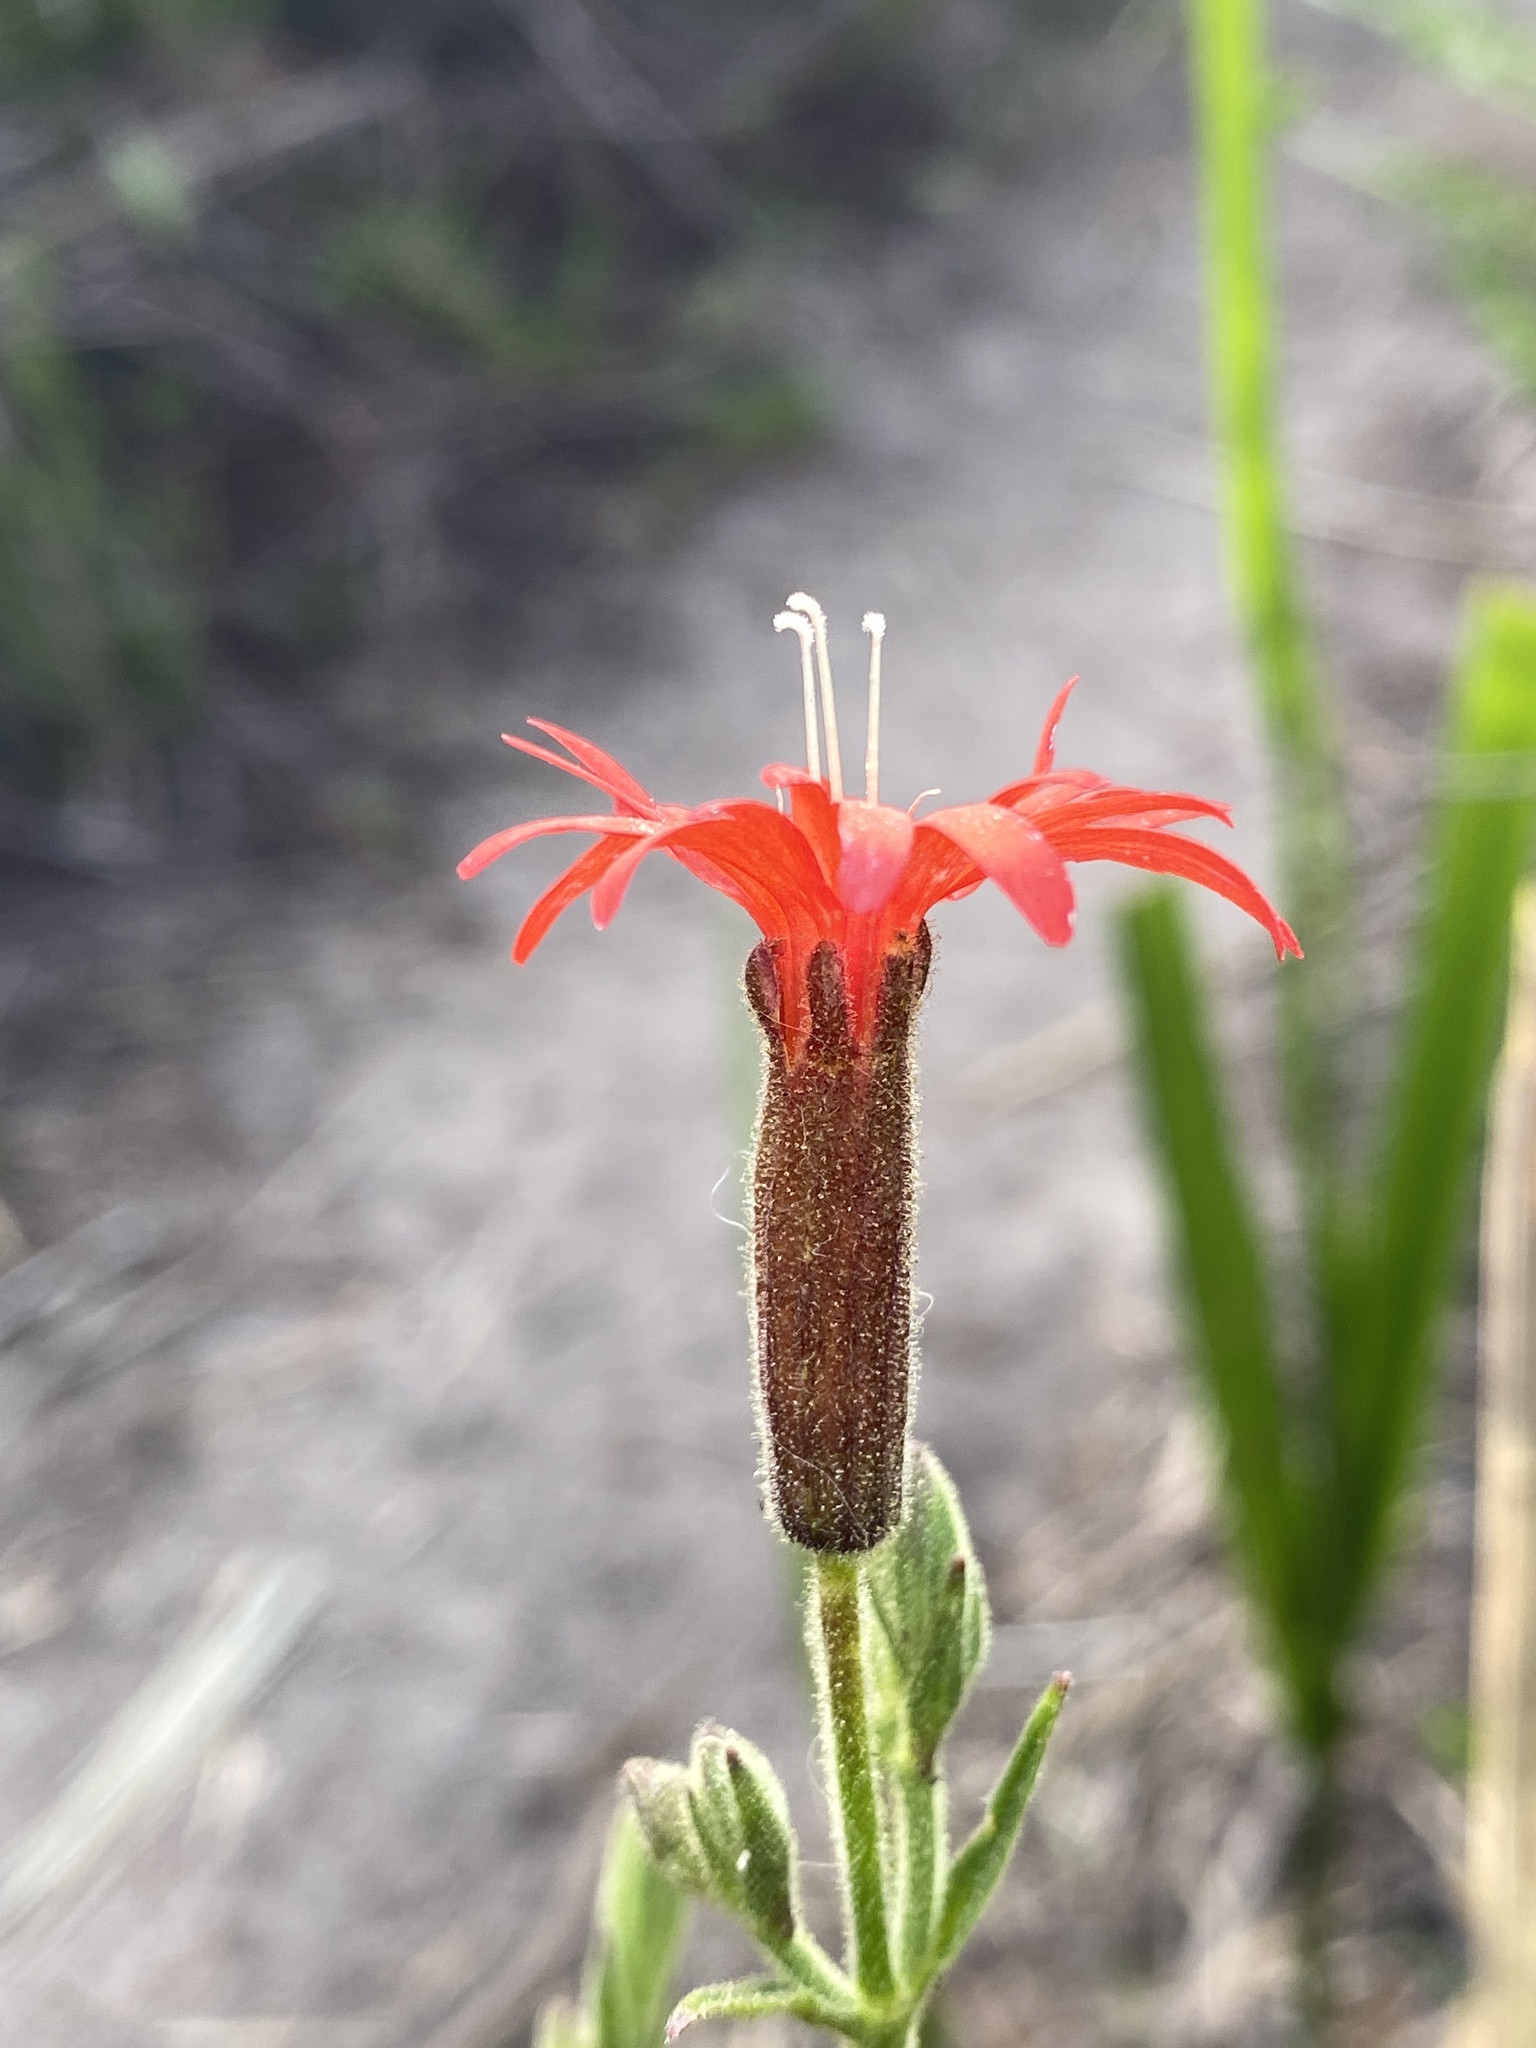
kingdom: Plantae
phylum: Tracheophyta
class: Magnoliopsida
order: Caryophyllales
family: Caryophyllaceae
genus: Silene
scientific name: Silene laciniata
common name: Indian-pink
